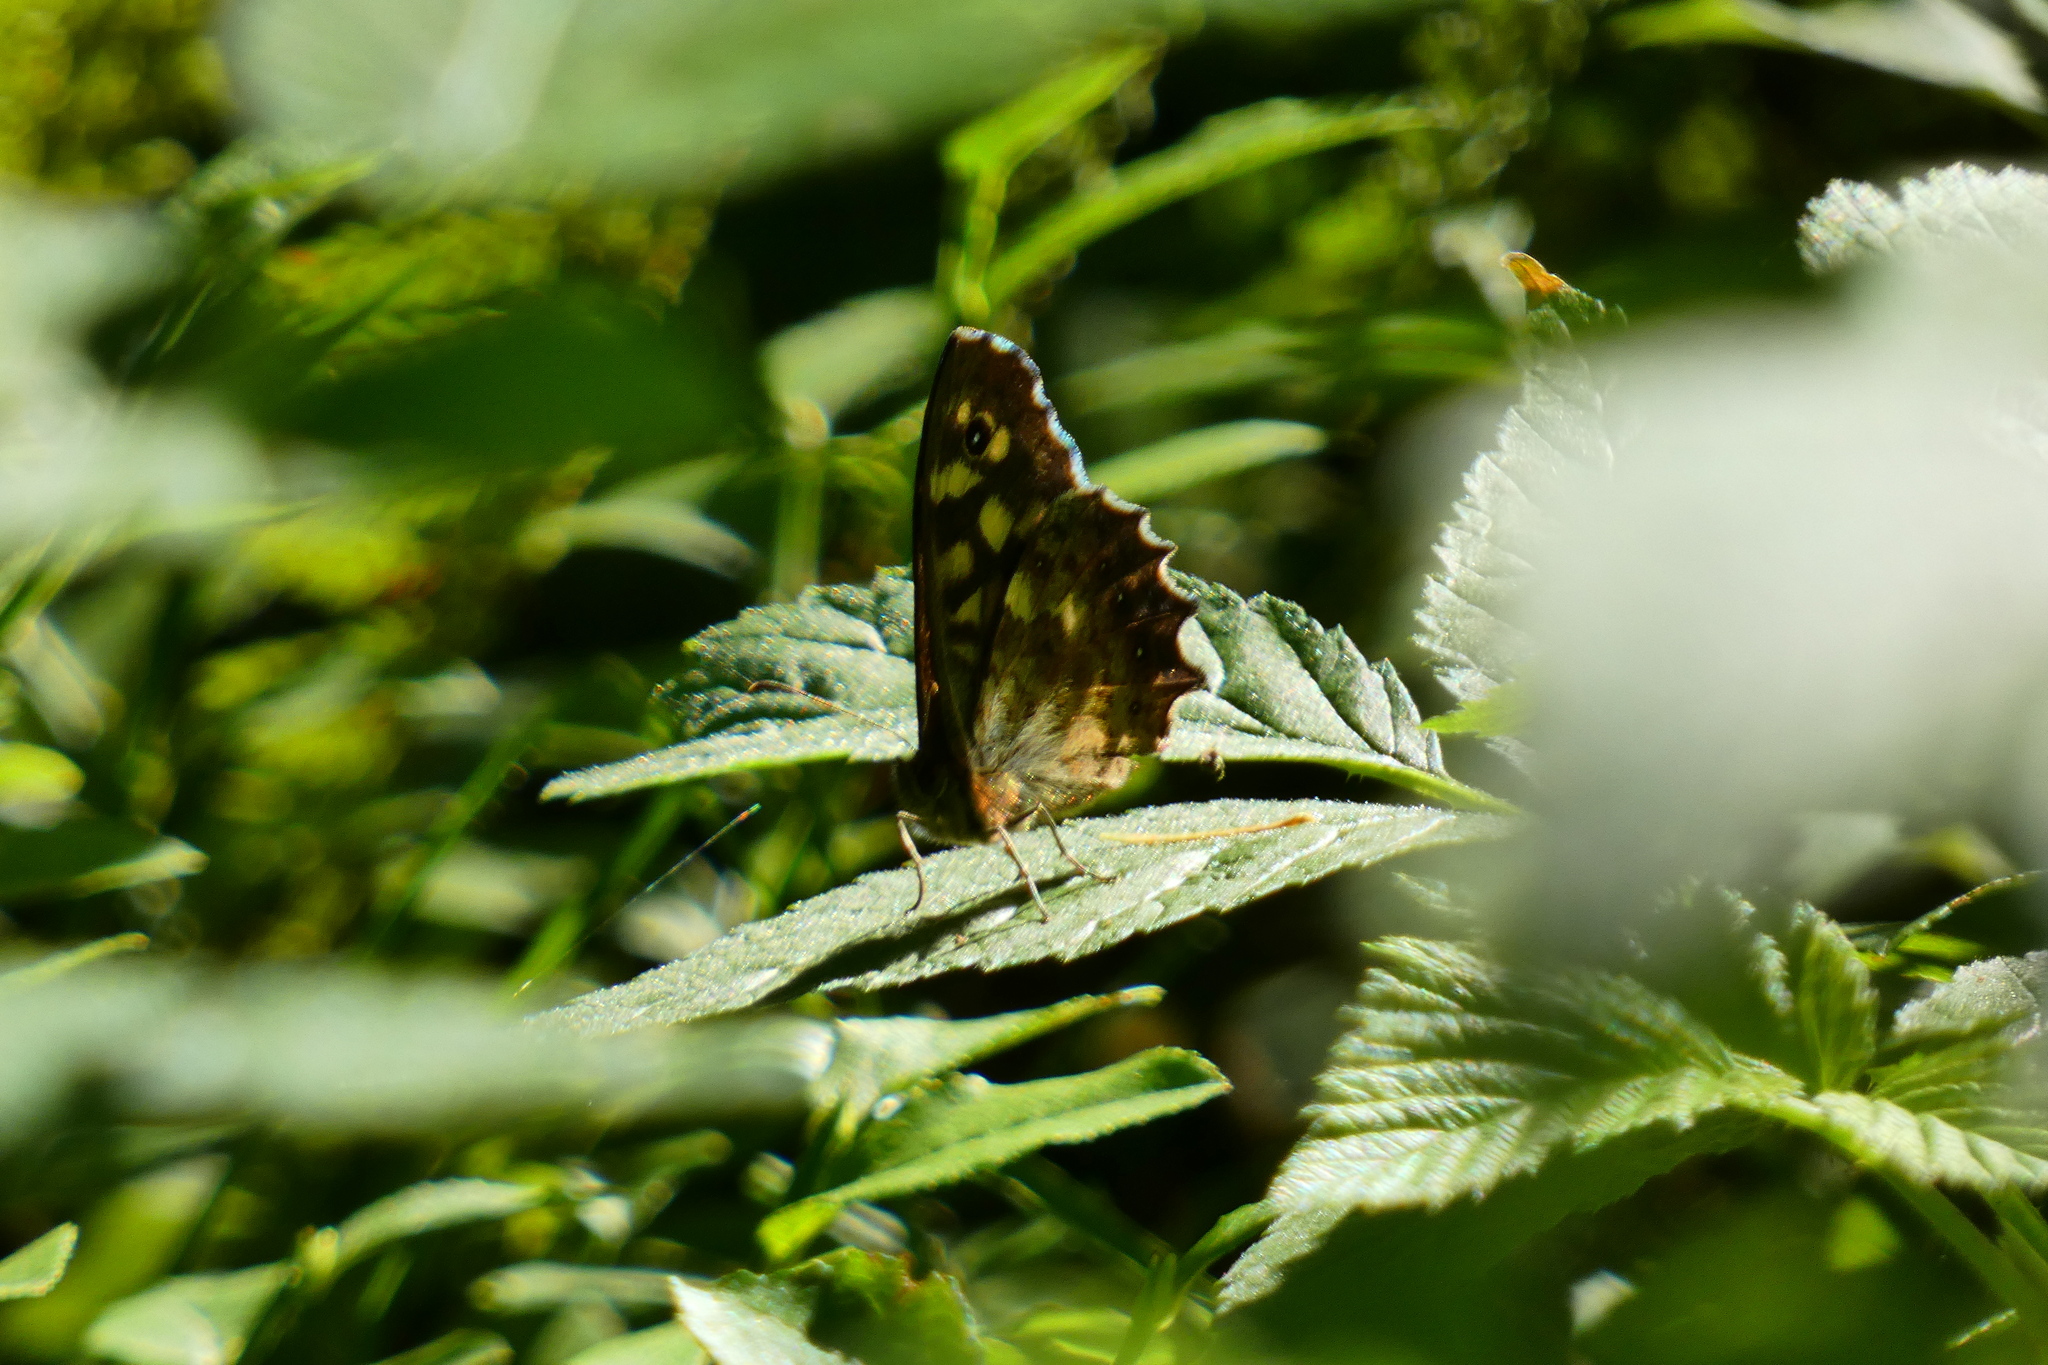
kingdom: Animalia
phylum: Arthropoda
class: Insecta
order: Lepidoptera
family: Nymphalidae
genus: Pararge
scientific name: Pararge aegeria
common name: Speckled wood
